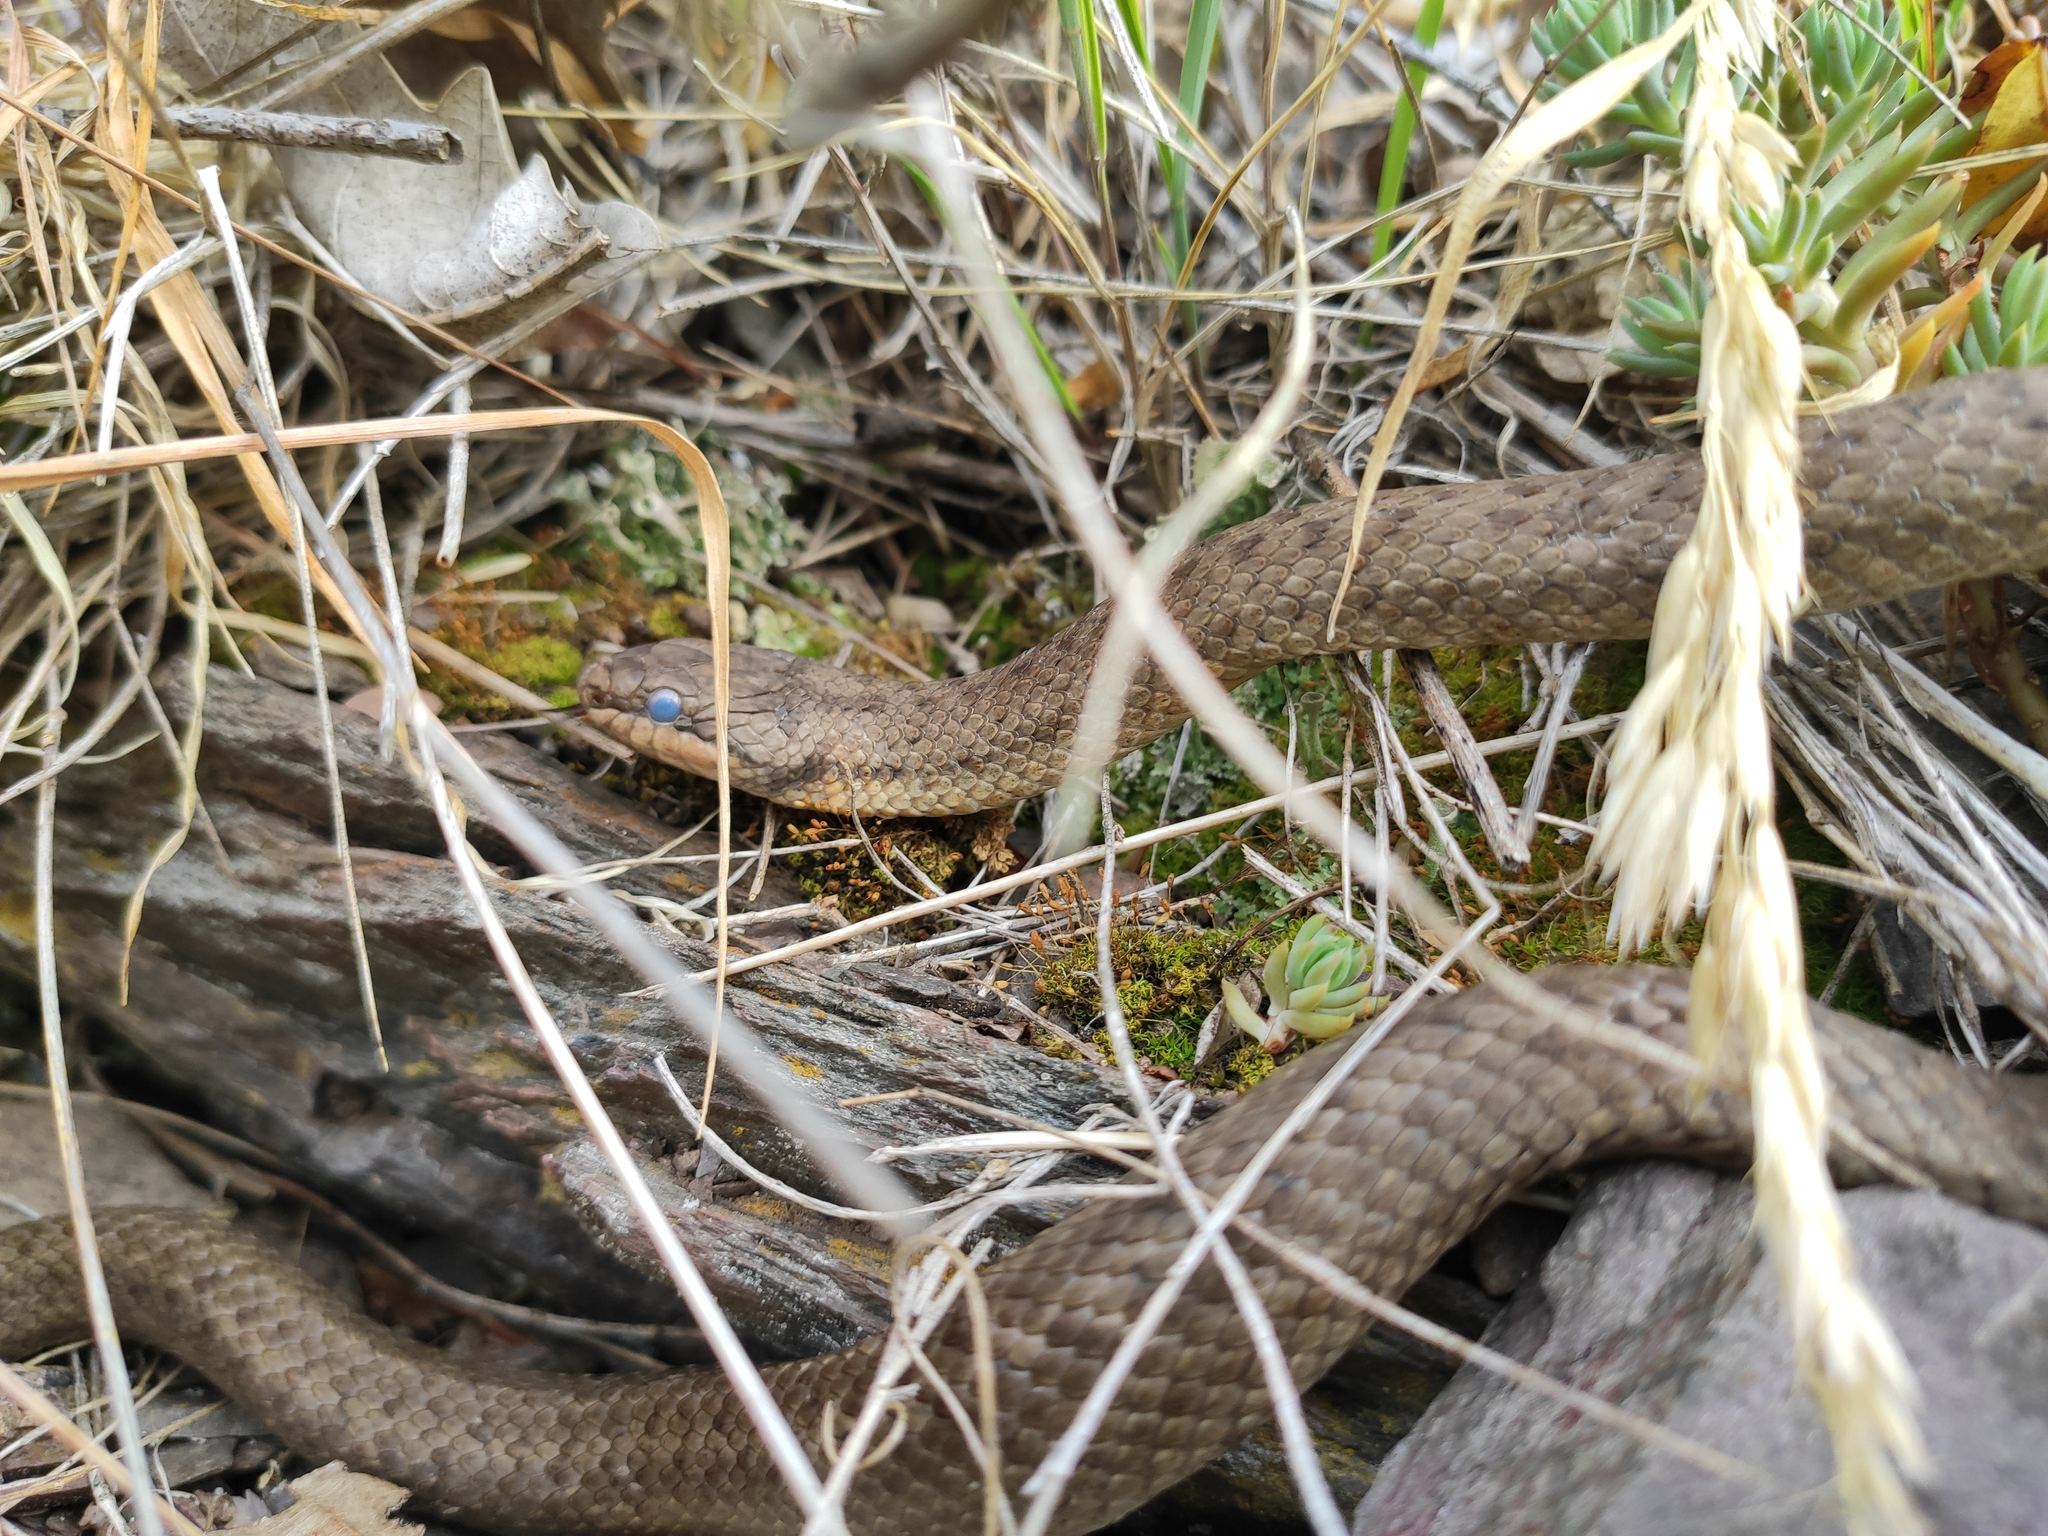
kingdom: Animalia
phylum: Chordata
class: Squamata
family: Colubridae
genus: Coronella
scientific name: Coronella austriaca
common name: Smooth snake
